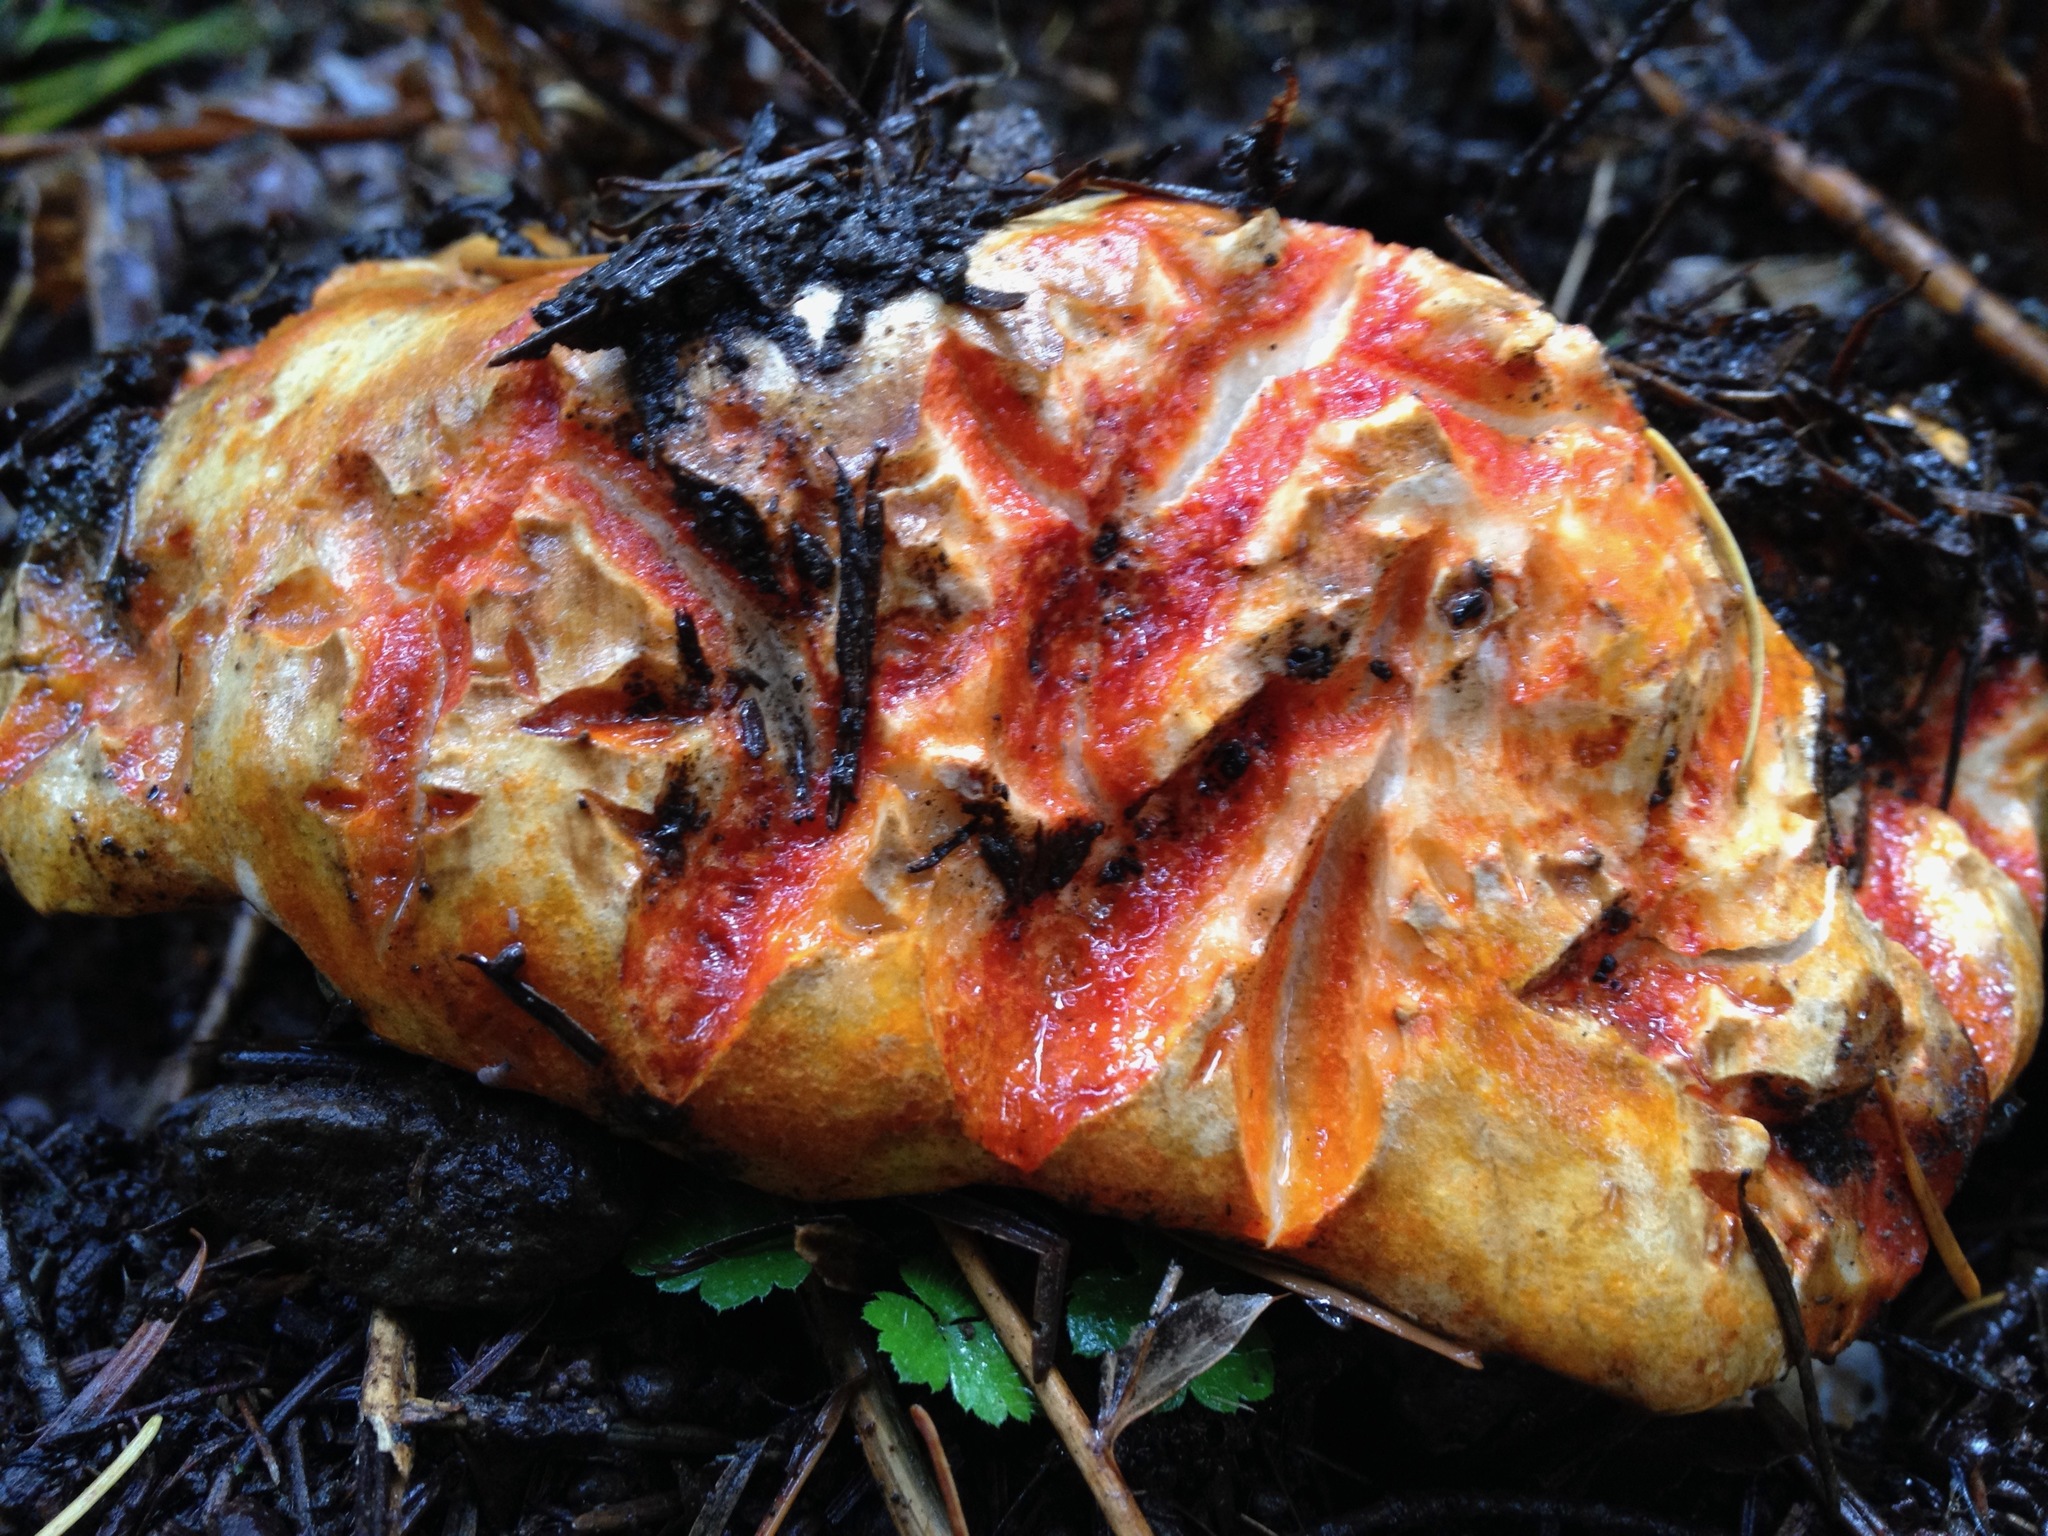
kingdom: Fungi
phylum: Ascomycota
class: Sordariomycetes
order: Hypocreales
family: Hypocreaceae
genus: Hypomyces
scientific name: Hypomyces lactifluorum
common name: Lobster mushroom
